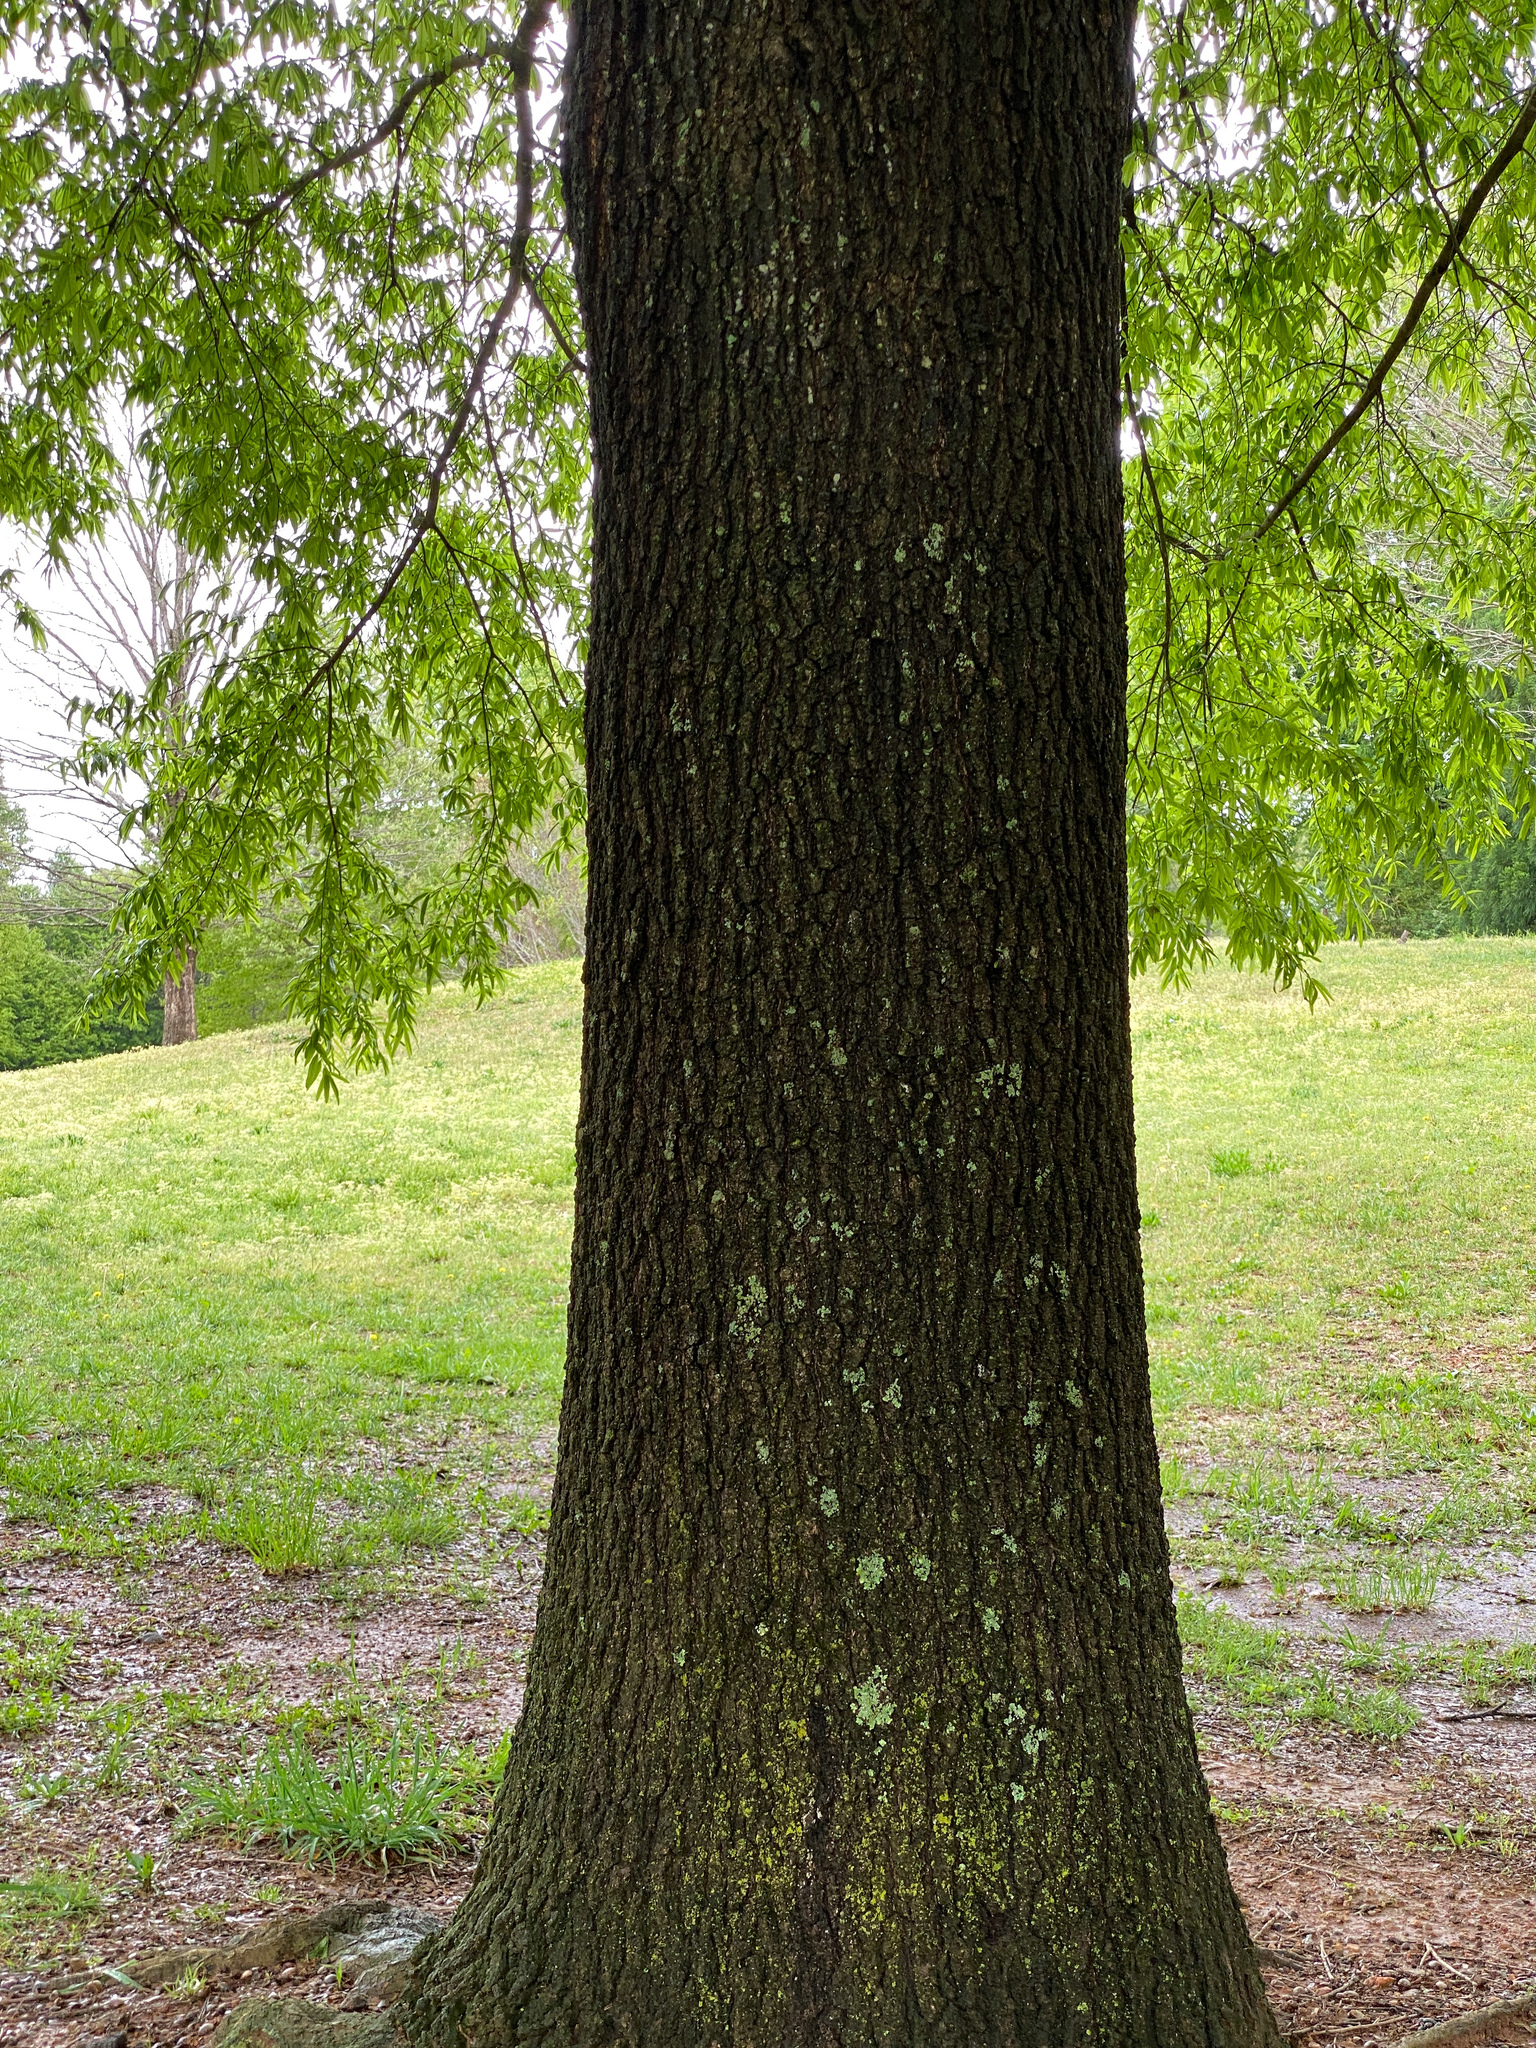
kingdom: Plantae
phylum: Tracheophyta
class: Magnoliopsida
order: Fagales
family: Fagaceae
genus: Quercus
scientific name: Quercus phellos
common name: Willow oak
